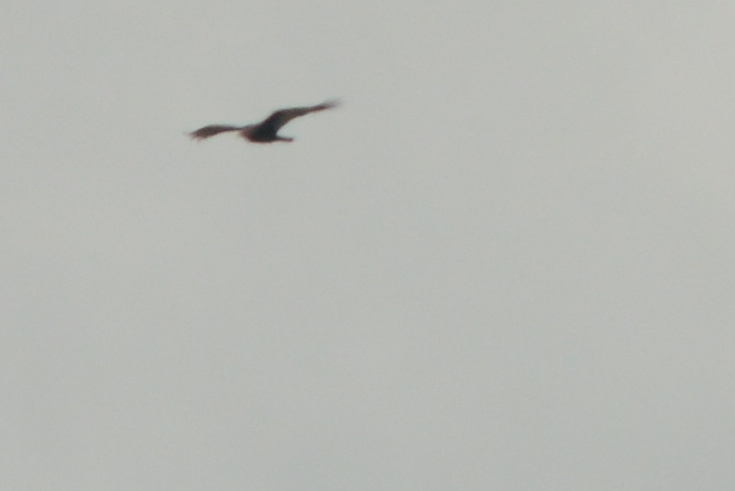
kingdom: Animalia
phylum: Chordata
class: Aves
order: Accipitriformes
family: Cathartidae
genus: Cathartes
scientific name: Cathartes aura
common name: Turkey vulture
